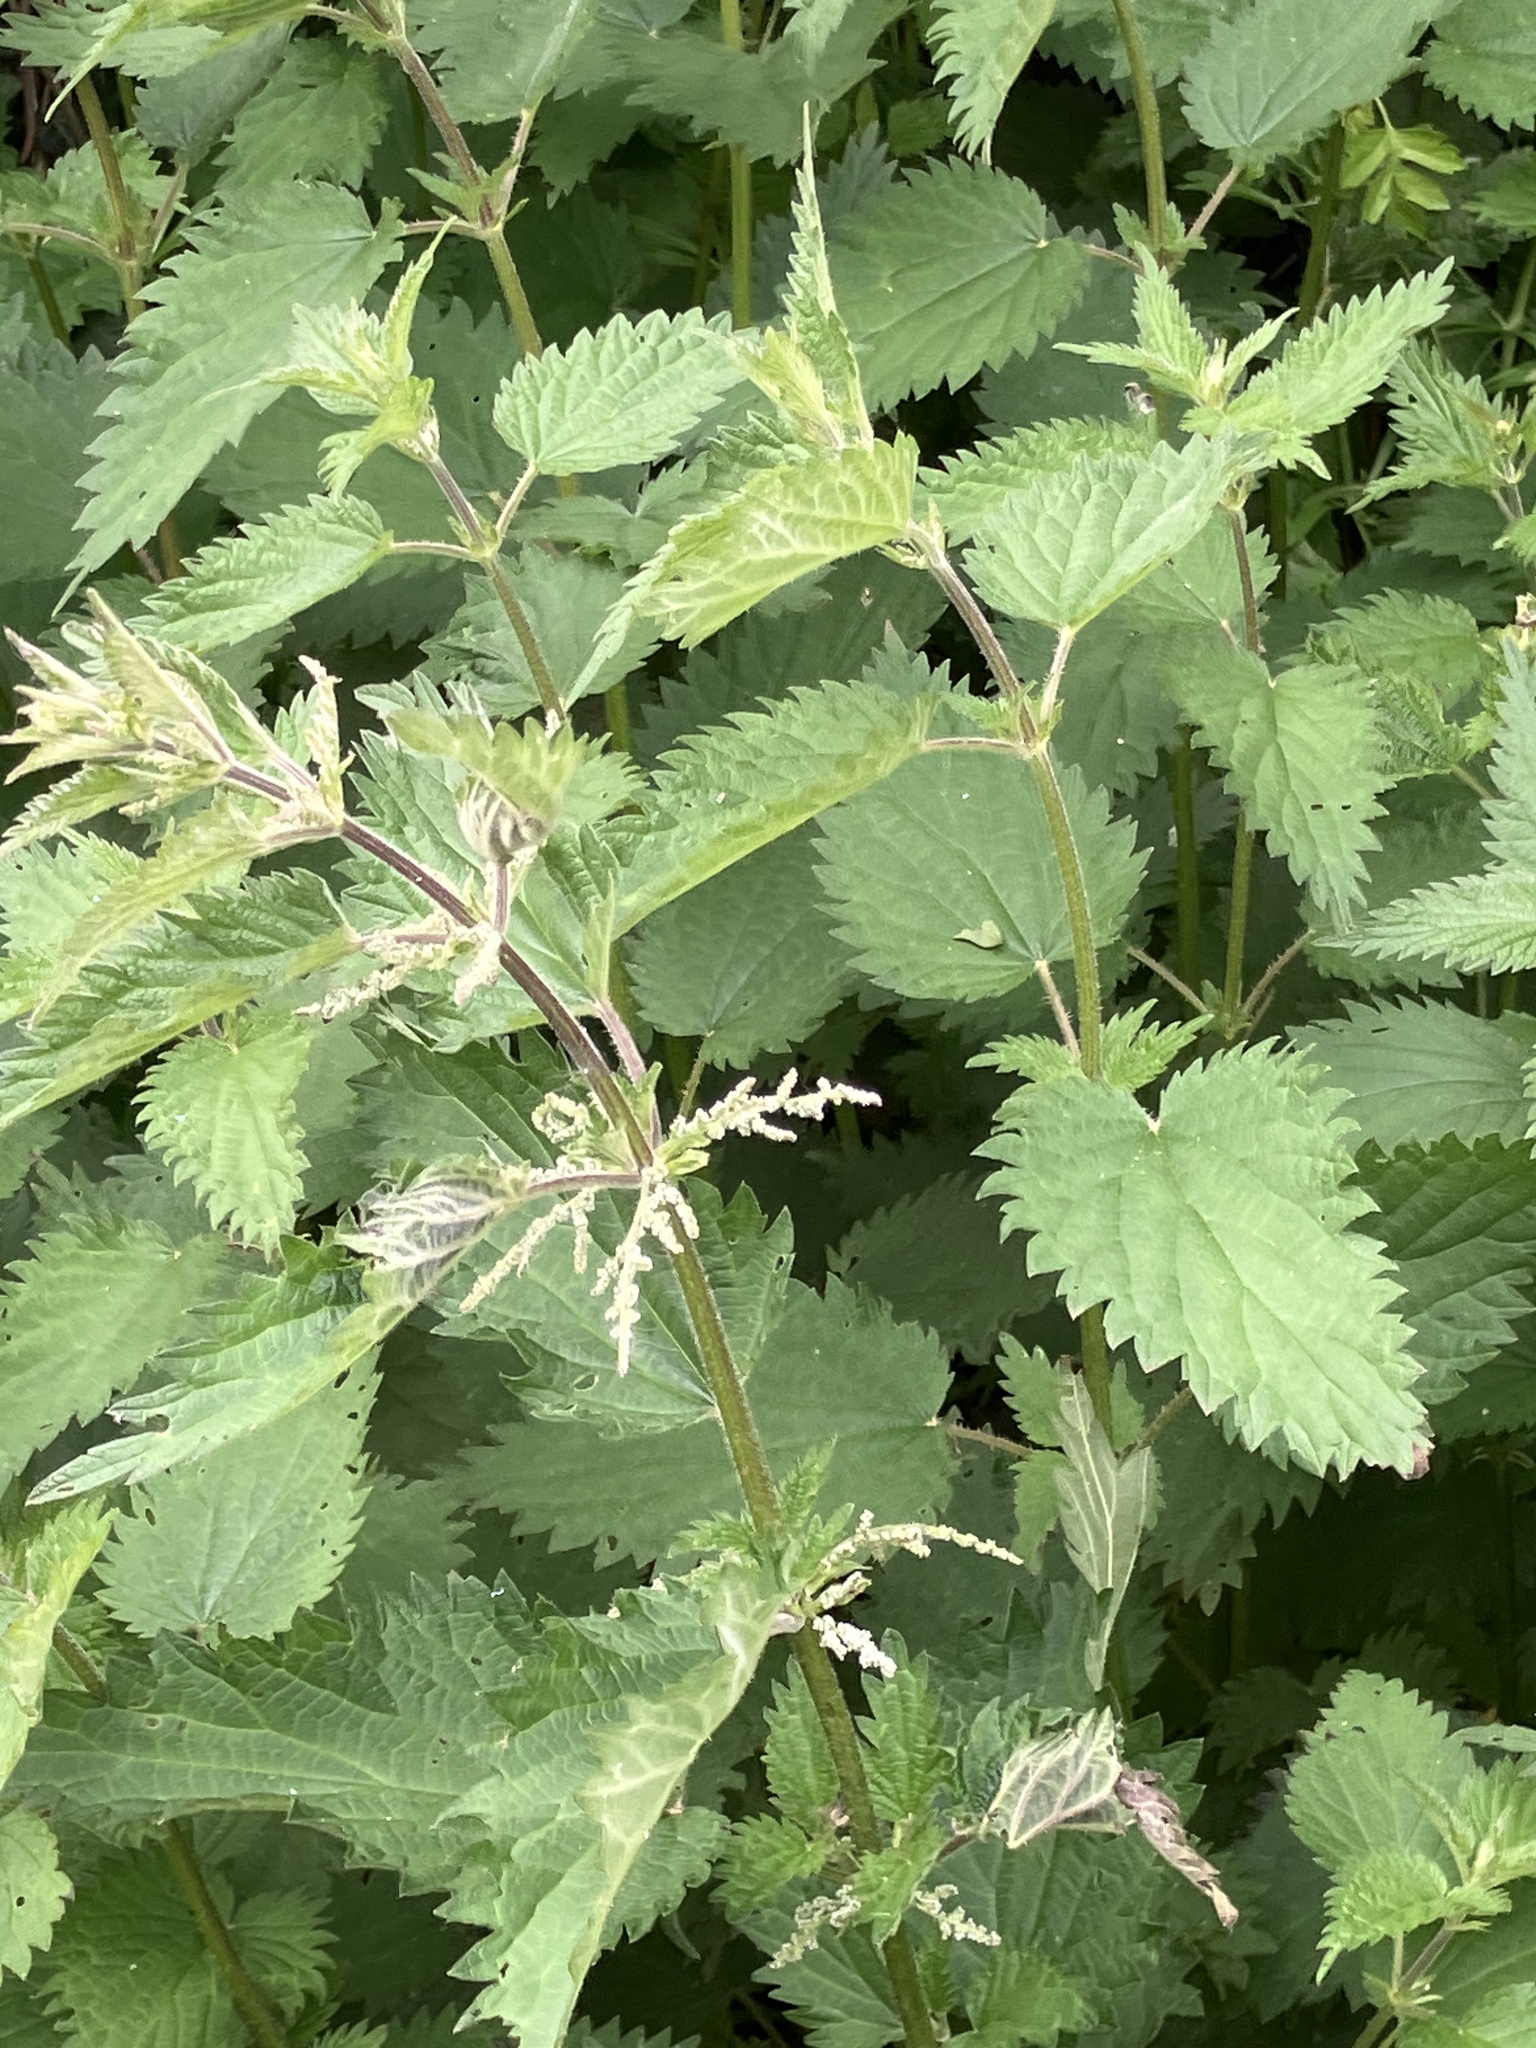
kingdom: Plantae
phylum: Tracheophyta
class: Magnoliopsida
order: Rosales
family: Urticaceae
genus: Urtica
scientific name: Urtica dioica
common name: Common nettle
